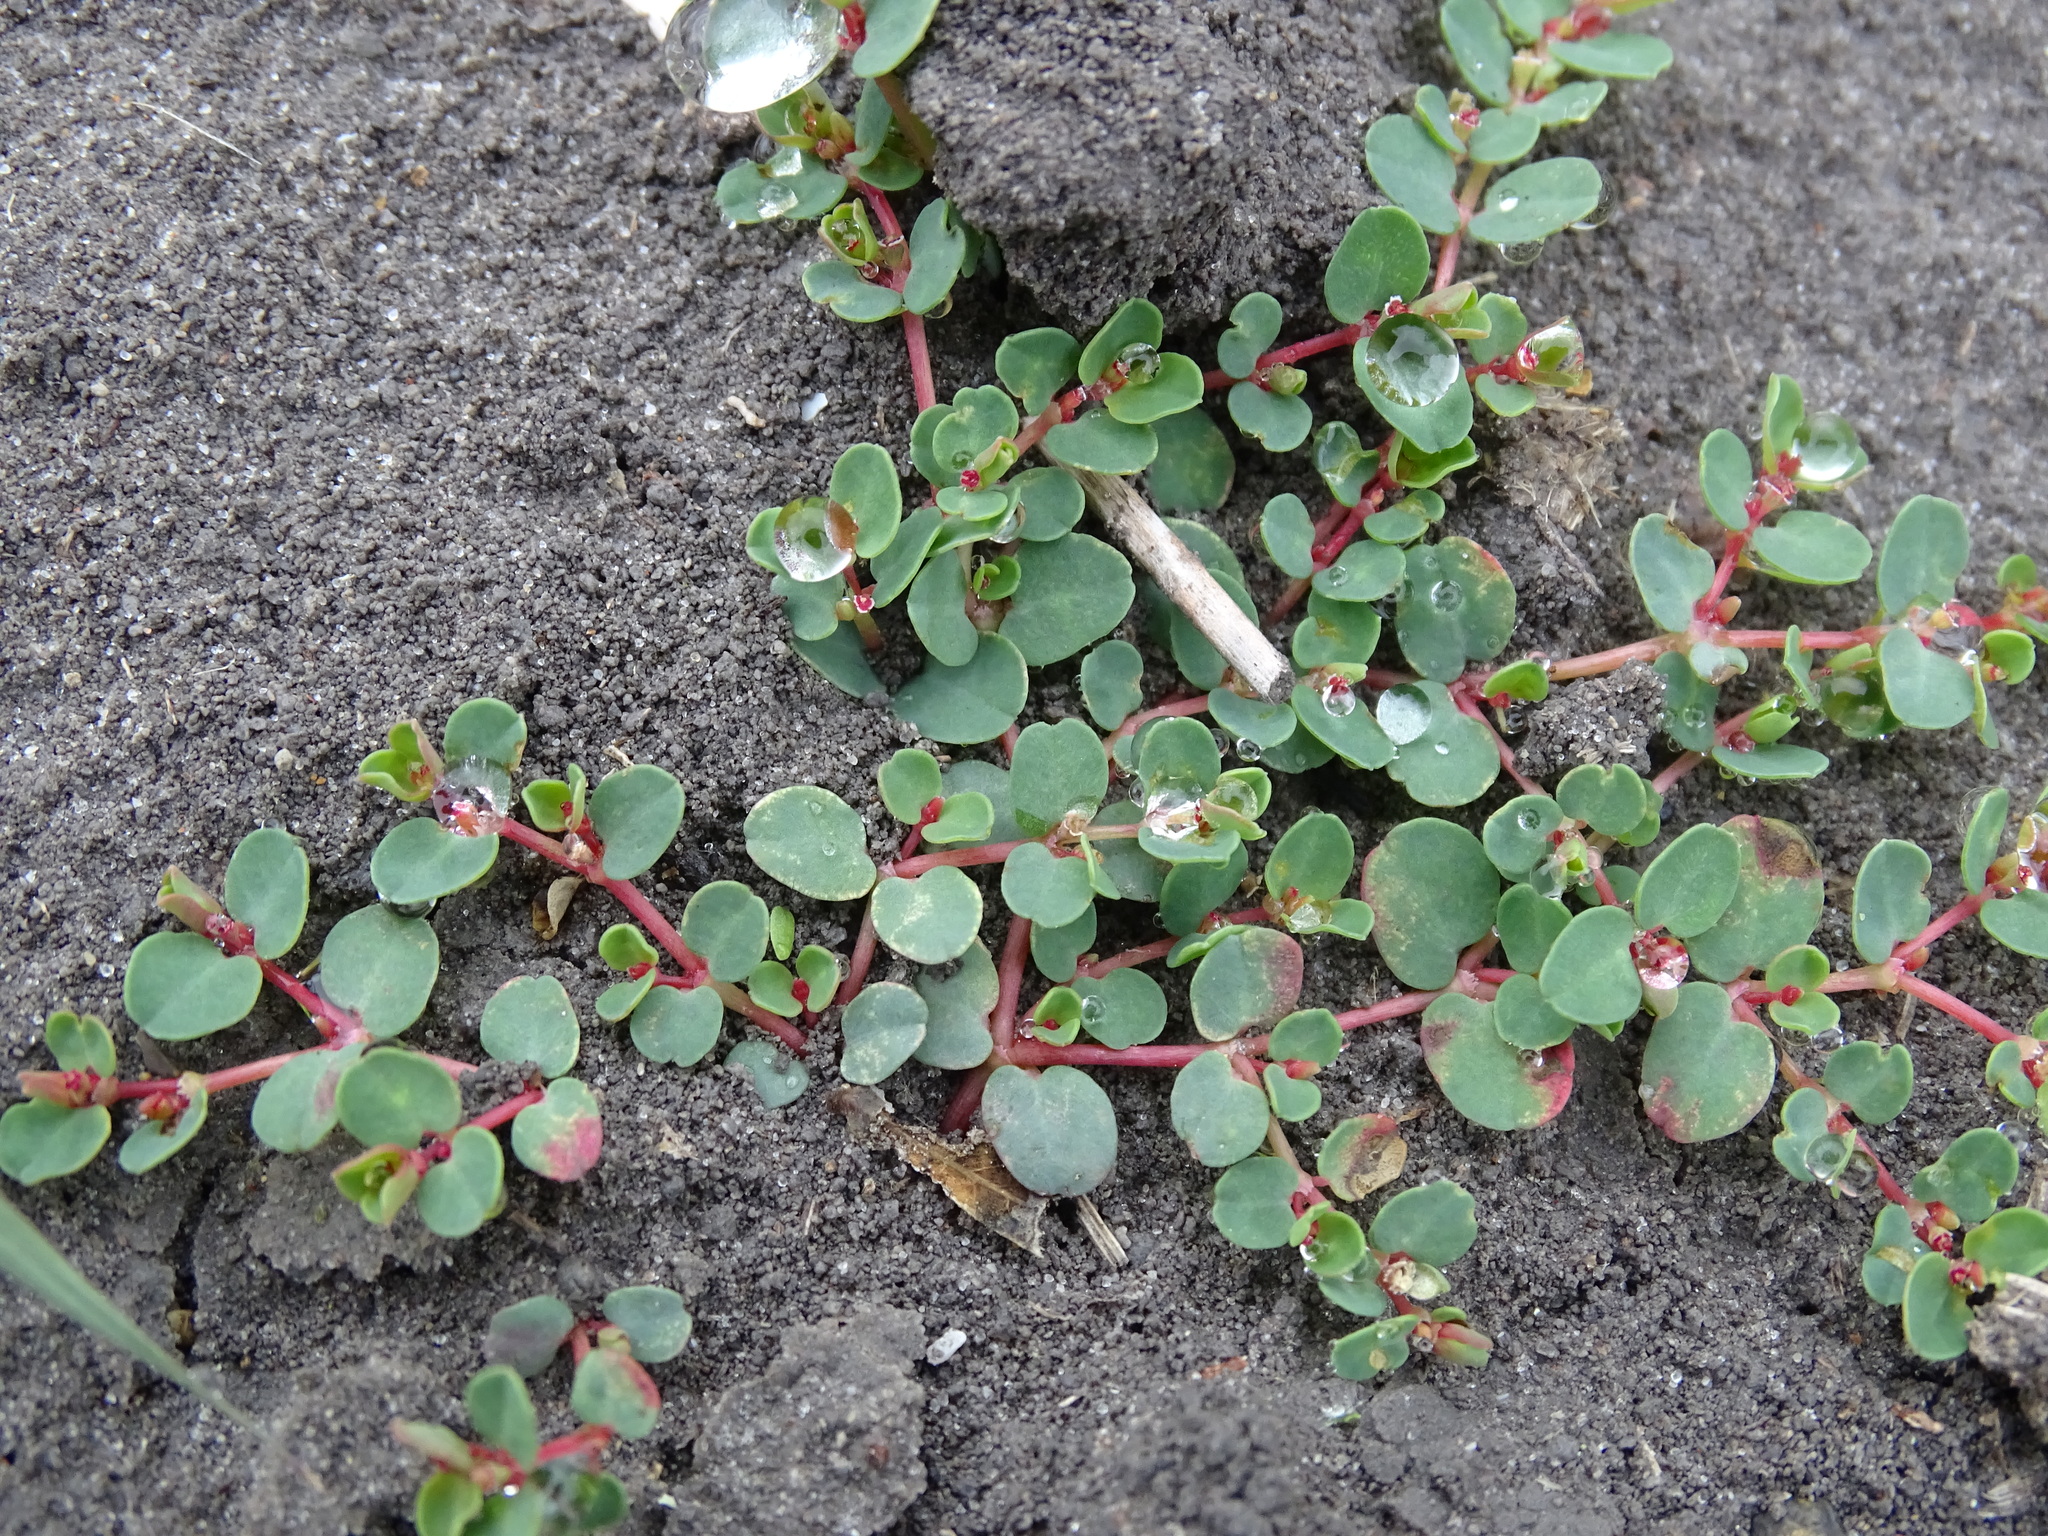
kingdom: Plantae
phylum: Tracheophyta
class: Magnoliopsida
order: Malpighiales
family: Euphorbiaceae
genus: Euphorbia
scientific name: Euphorbia serpens
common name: Matted sandmat
